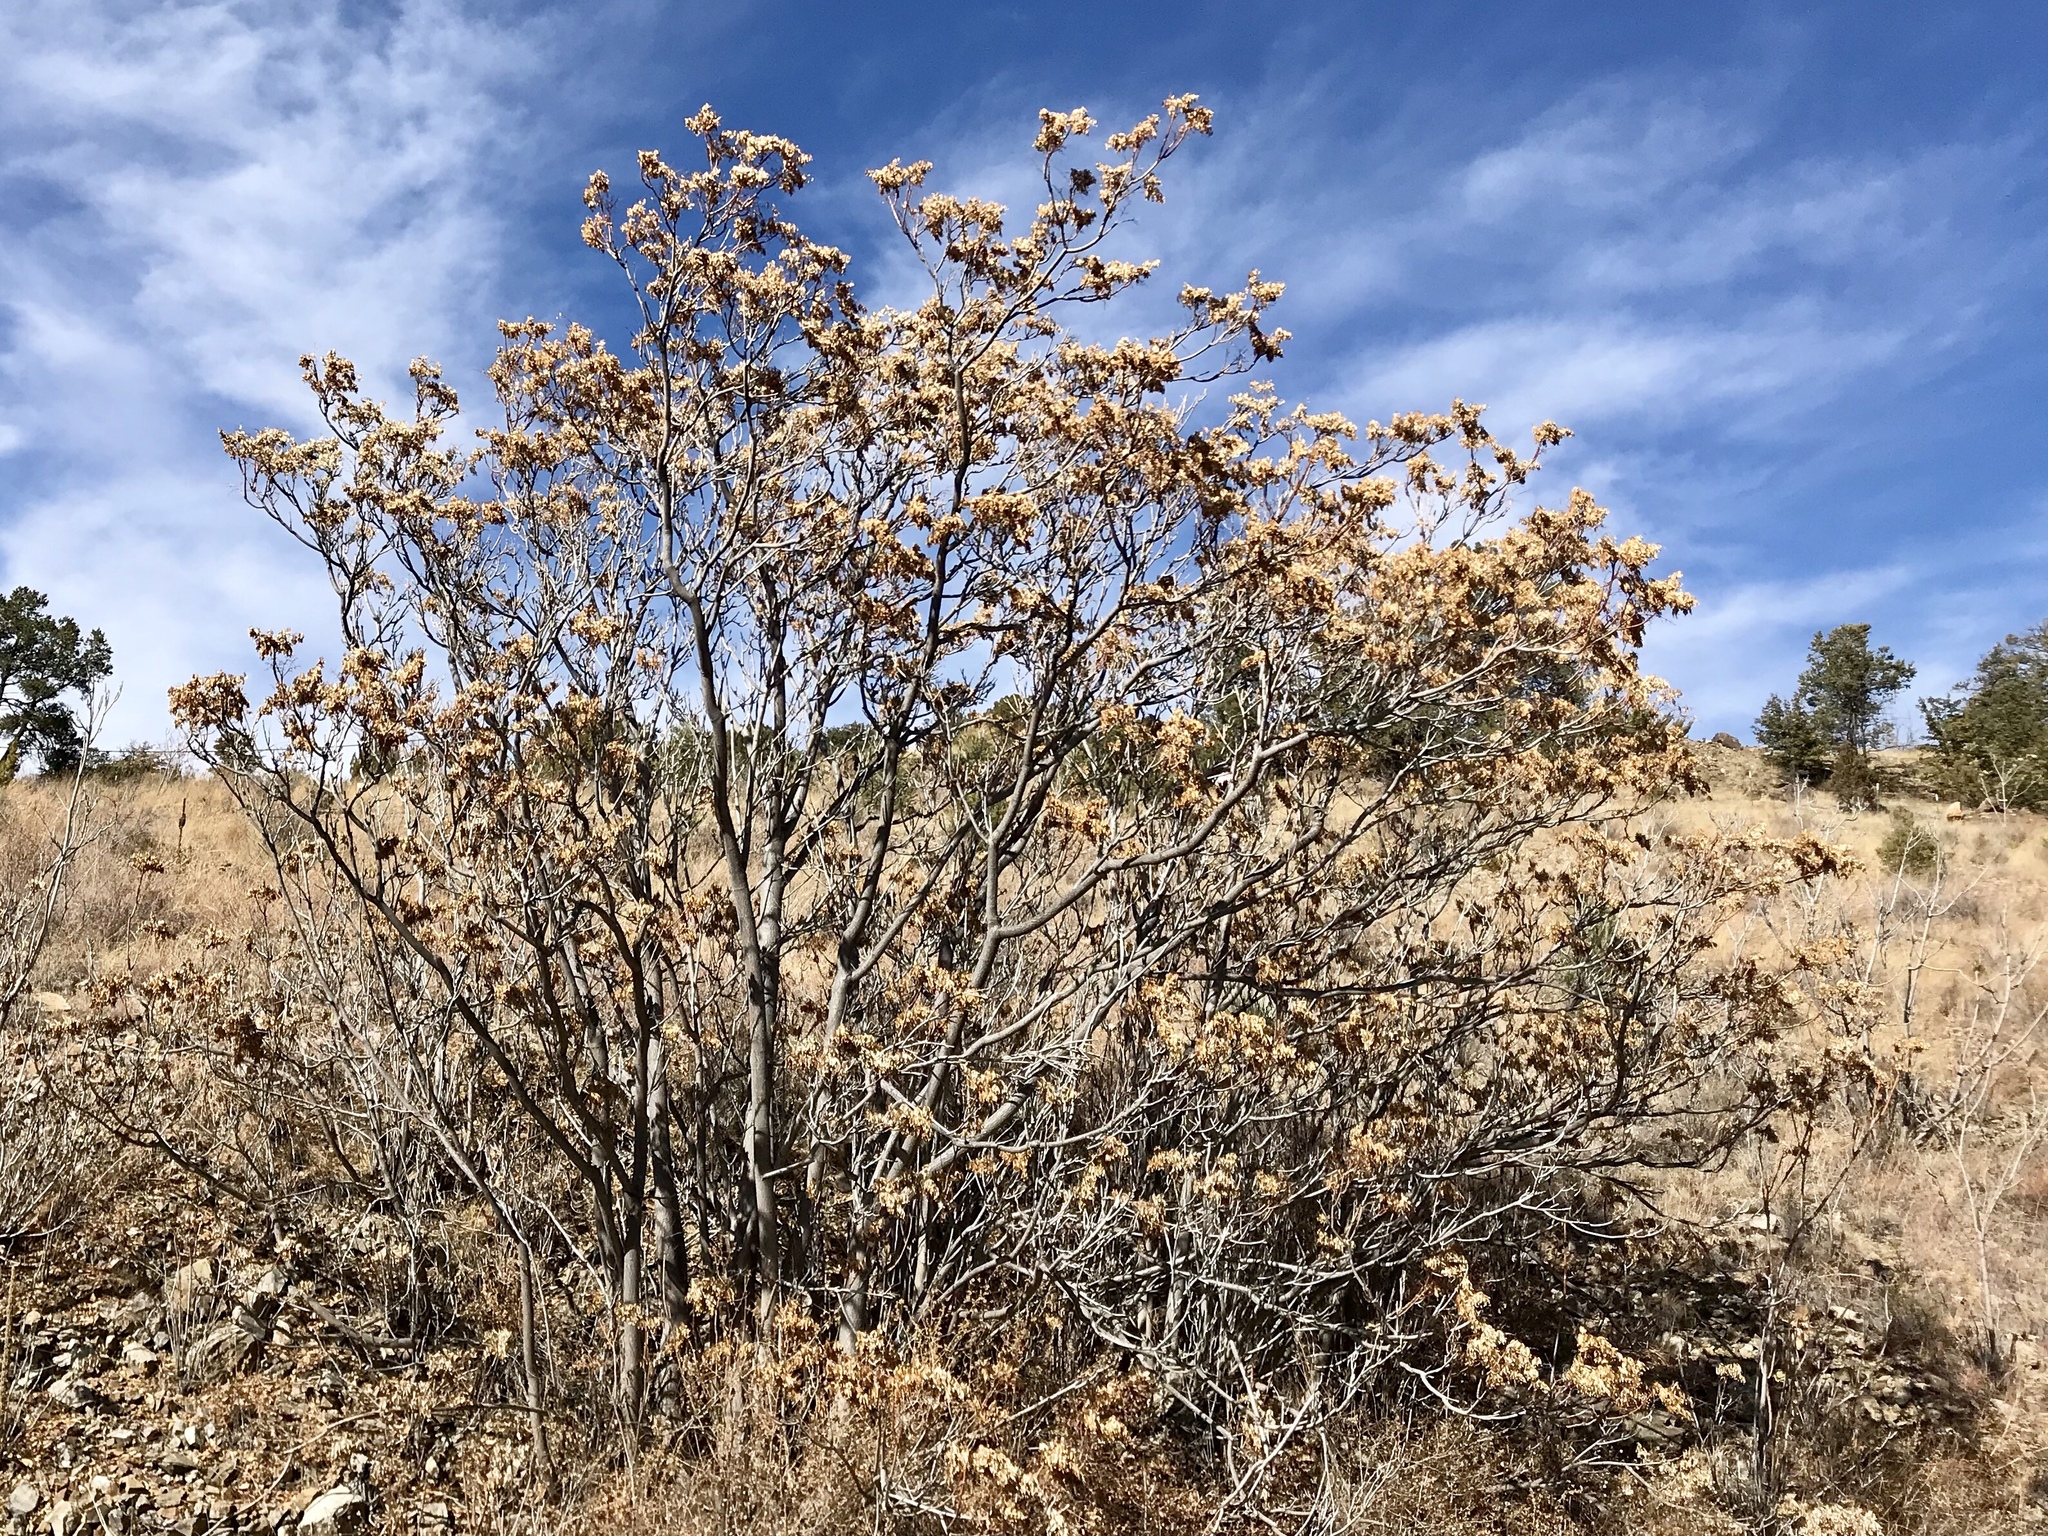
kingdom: Plantae
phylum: Tracheophyta
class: Magnoliopsida
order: Sapindales
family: Simaroubaceae
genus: Ailanthus
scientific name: Ailanthus altissima
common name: Tree-of-heaven
